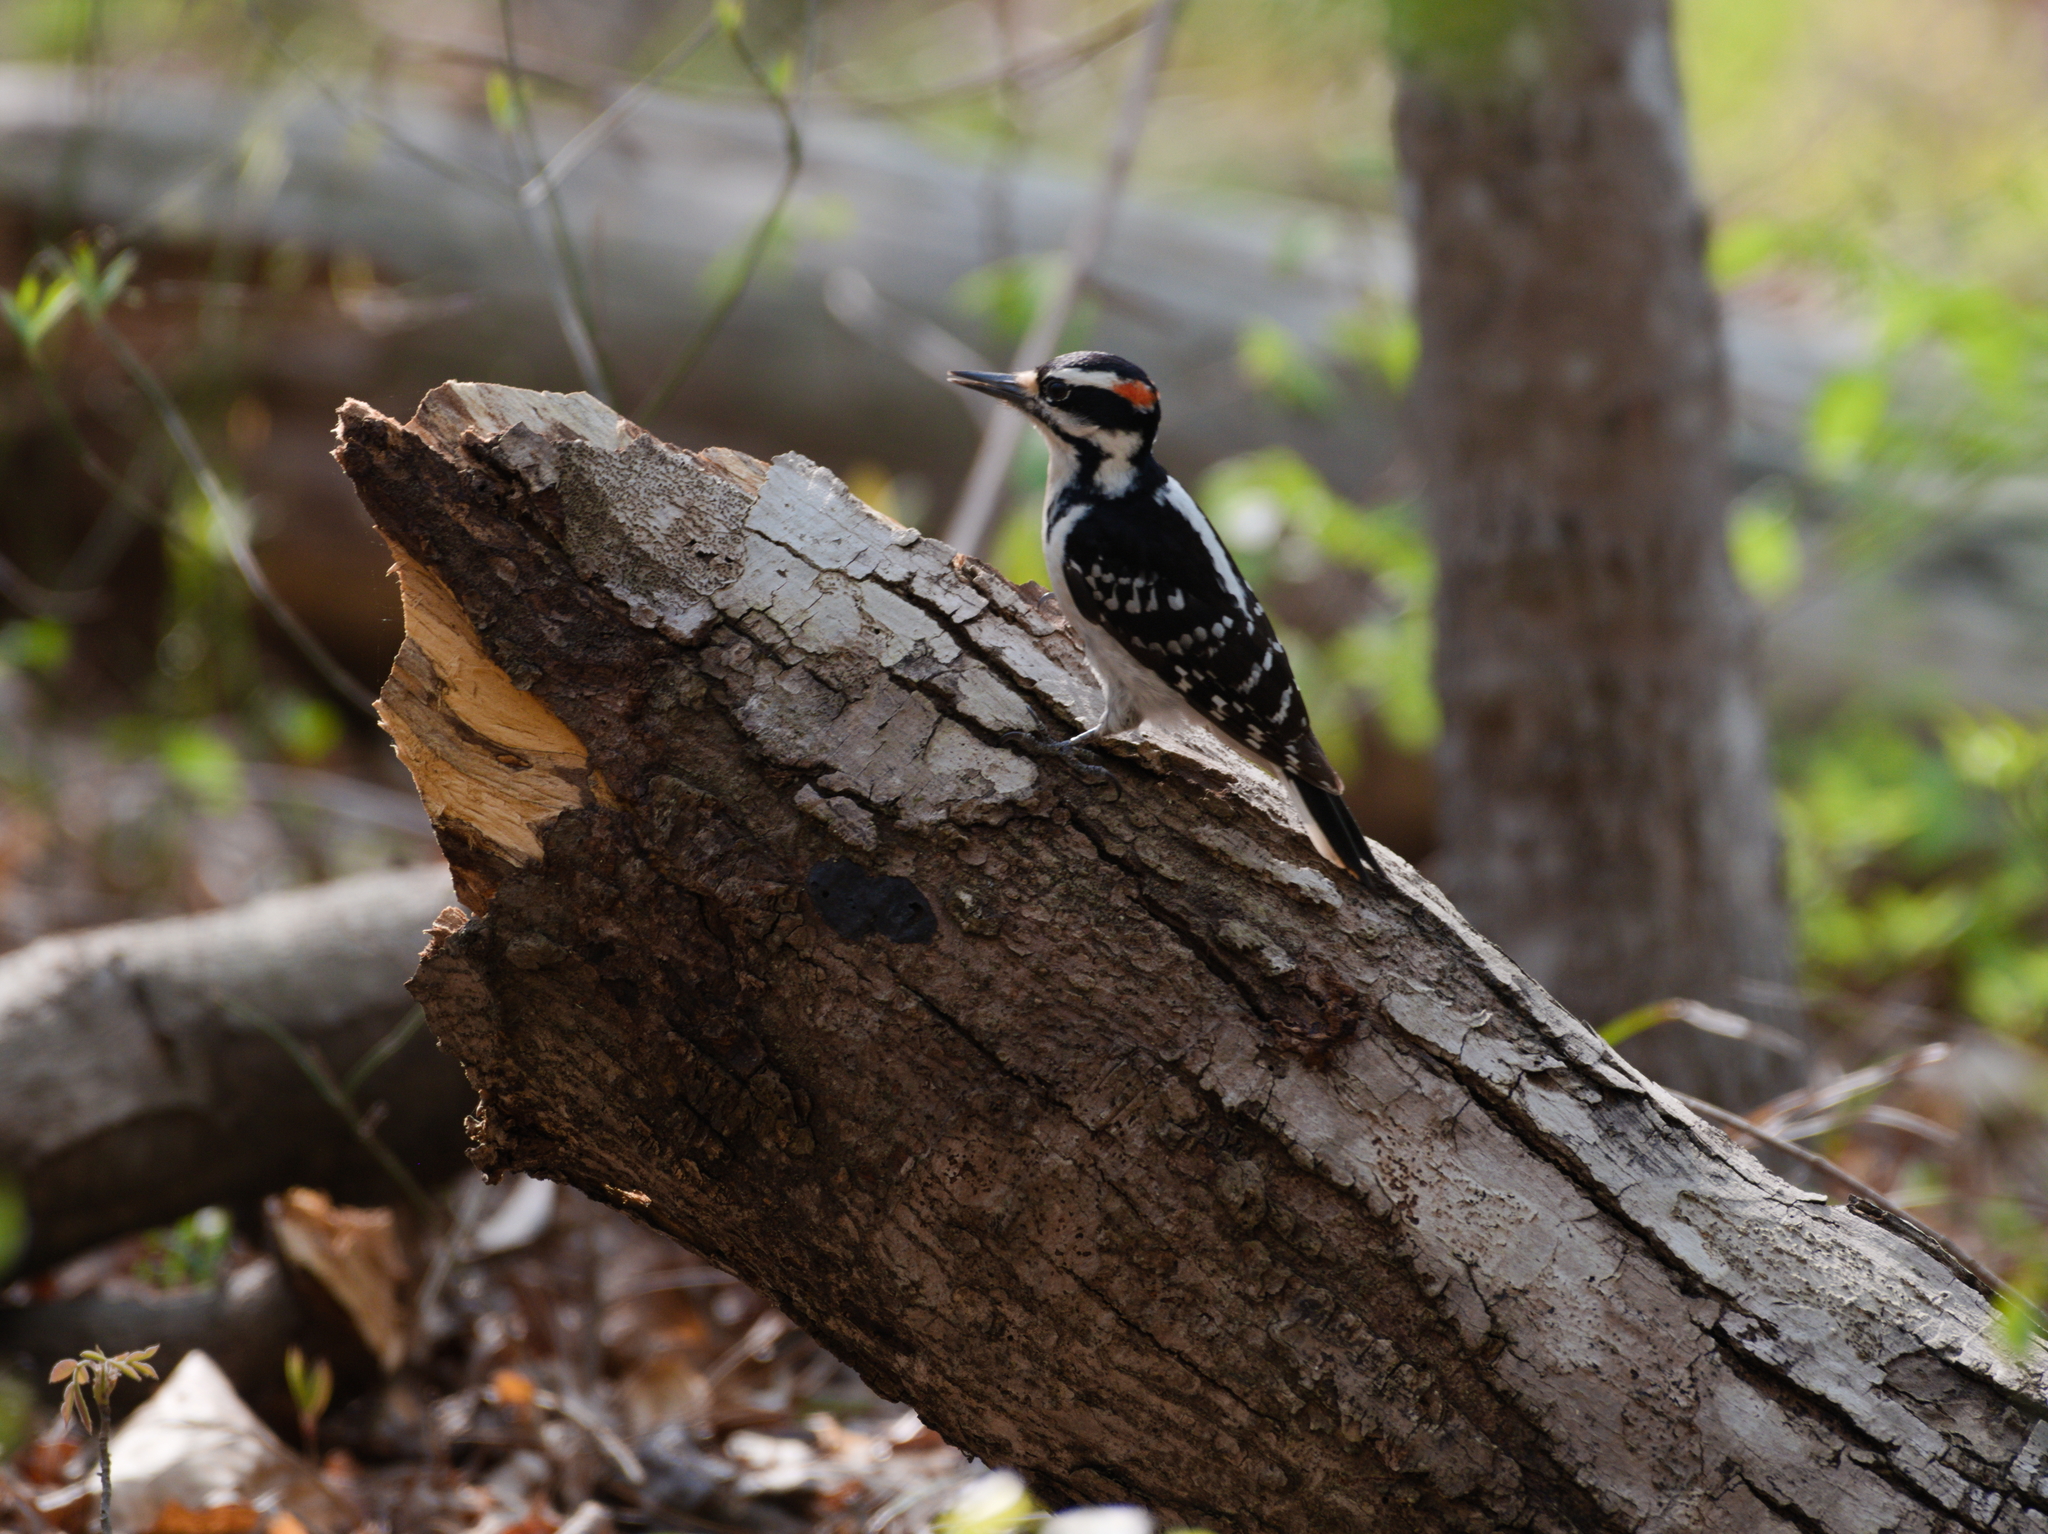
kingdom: Animalia
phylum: Chordata
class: Aves
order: Piciformes
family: Picidae
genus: Leuconotopicus
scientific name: Leuconotopicus villosus
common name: Hairy woodpecker
